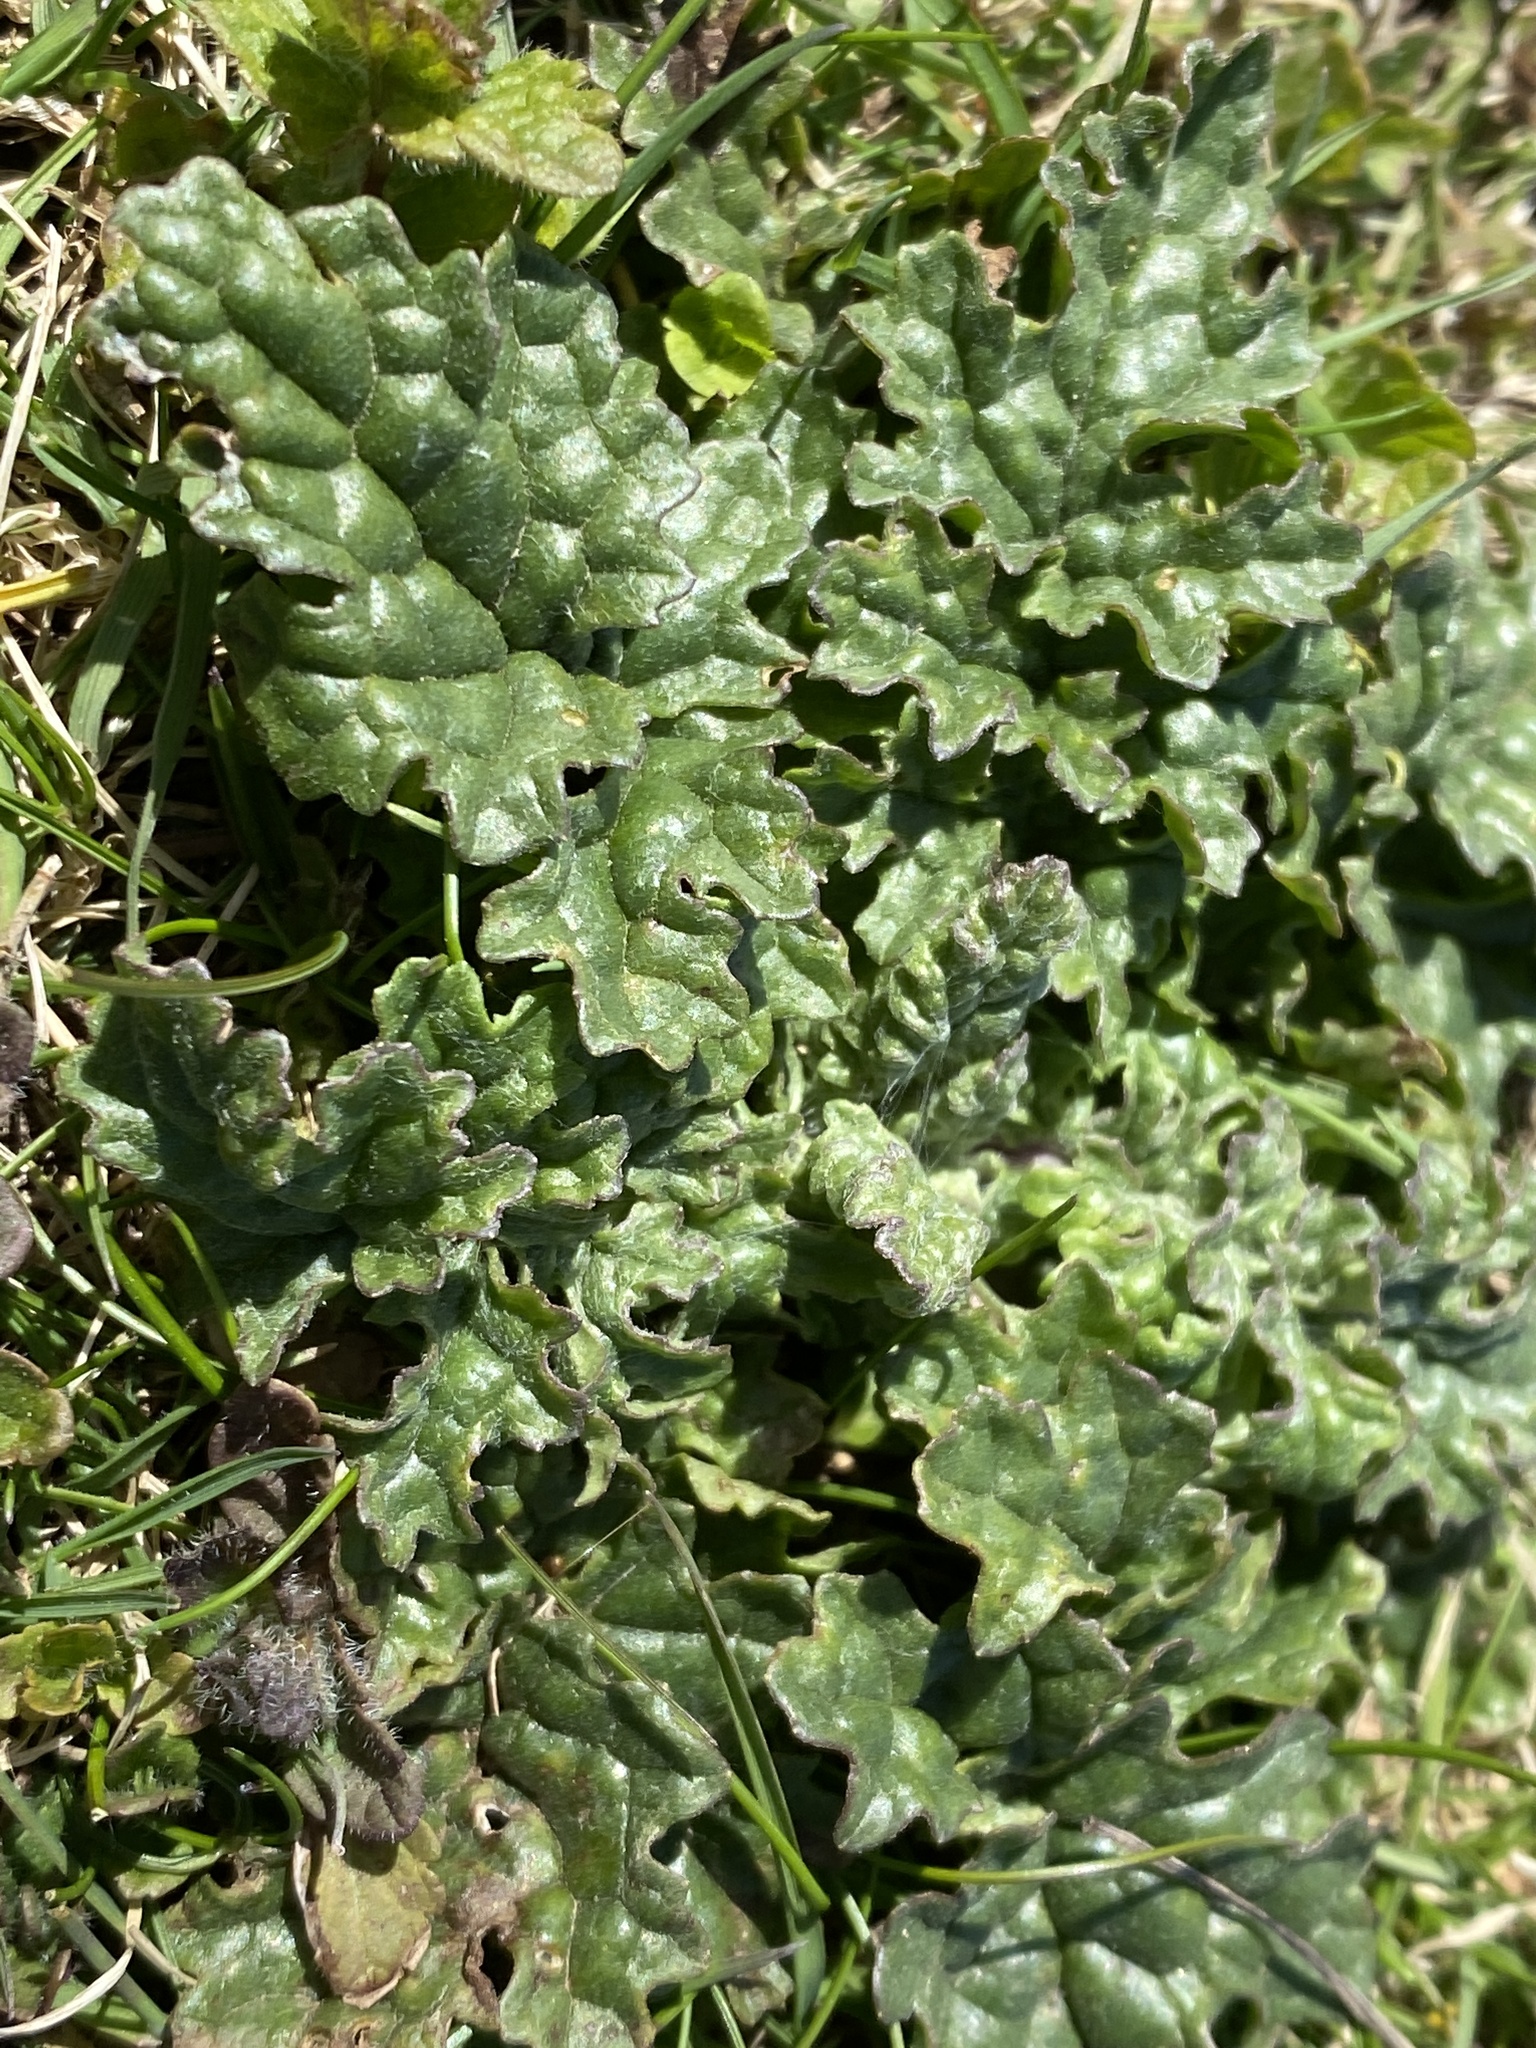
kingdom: Plantae
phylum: Tracheophyta
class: Magnoliopsida
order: Asterales
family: Asteraceae
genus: Jacobaea
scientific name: Jacobaea vulgaris
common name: Stinking willie
